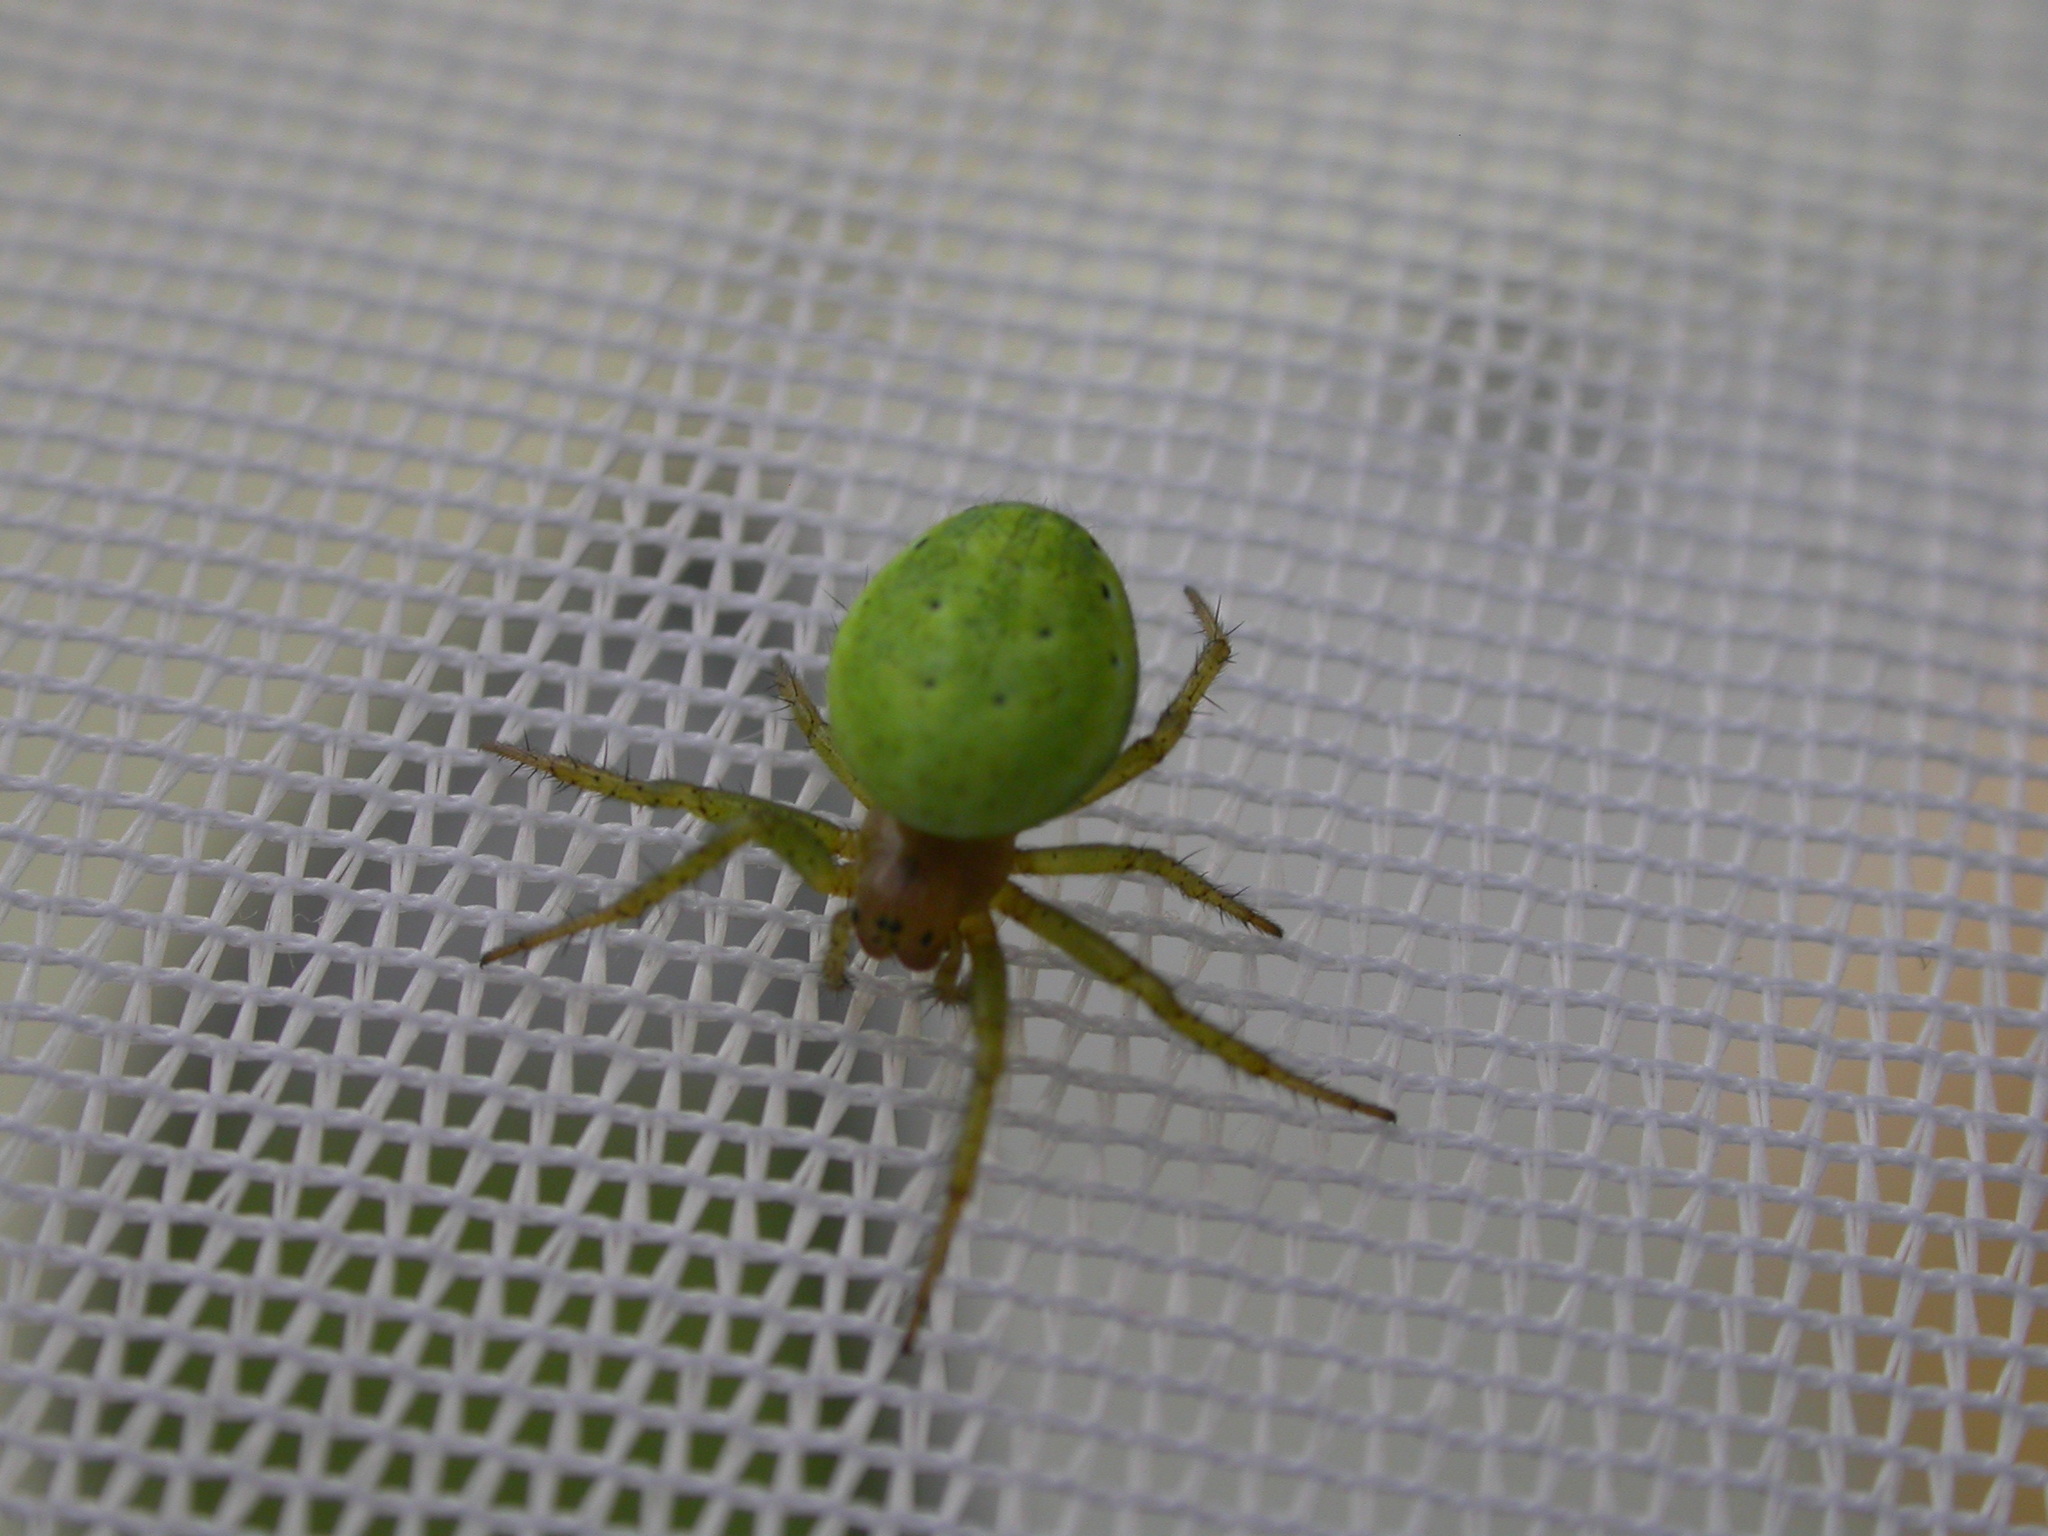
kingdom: Animalia
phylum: Arthropoda
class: Arachnida
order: Araneae
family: Araneidae
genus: Araniella
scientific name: Araniella cucurbitina
